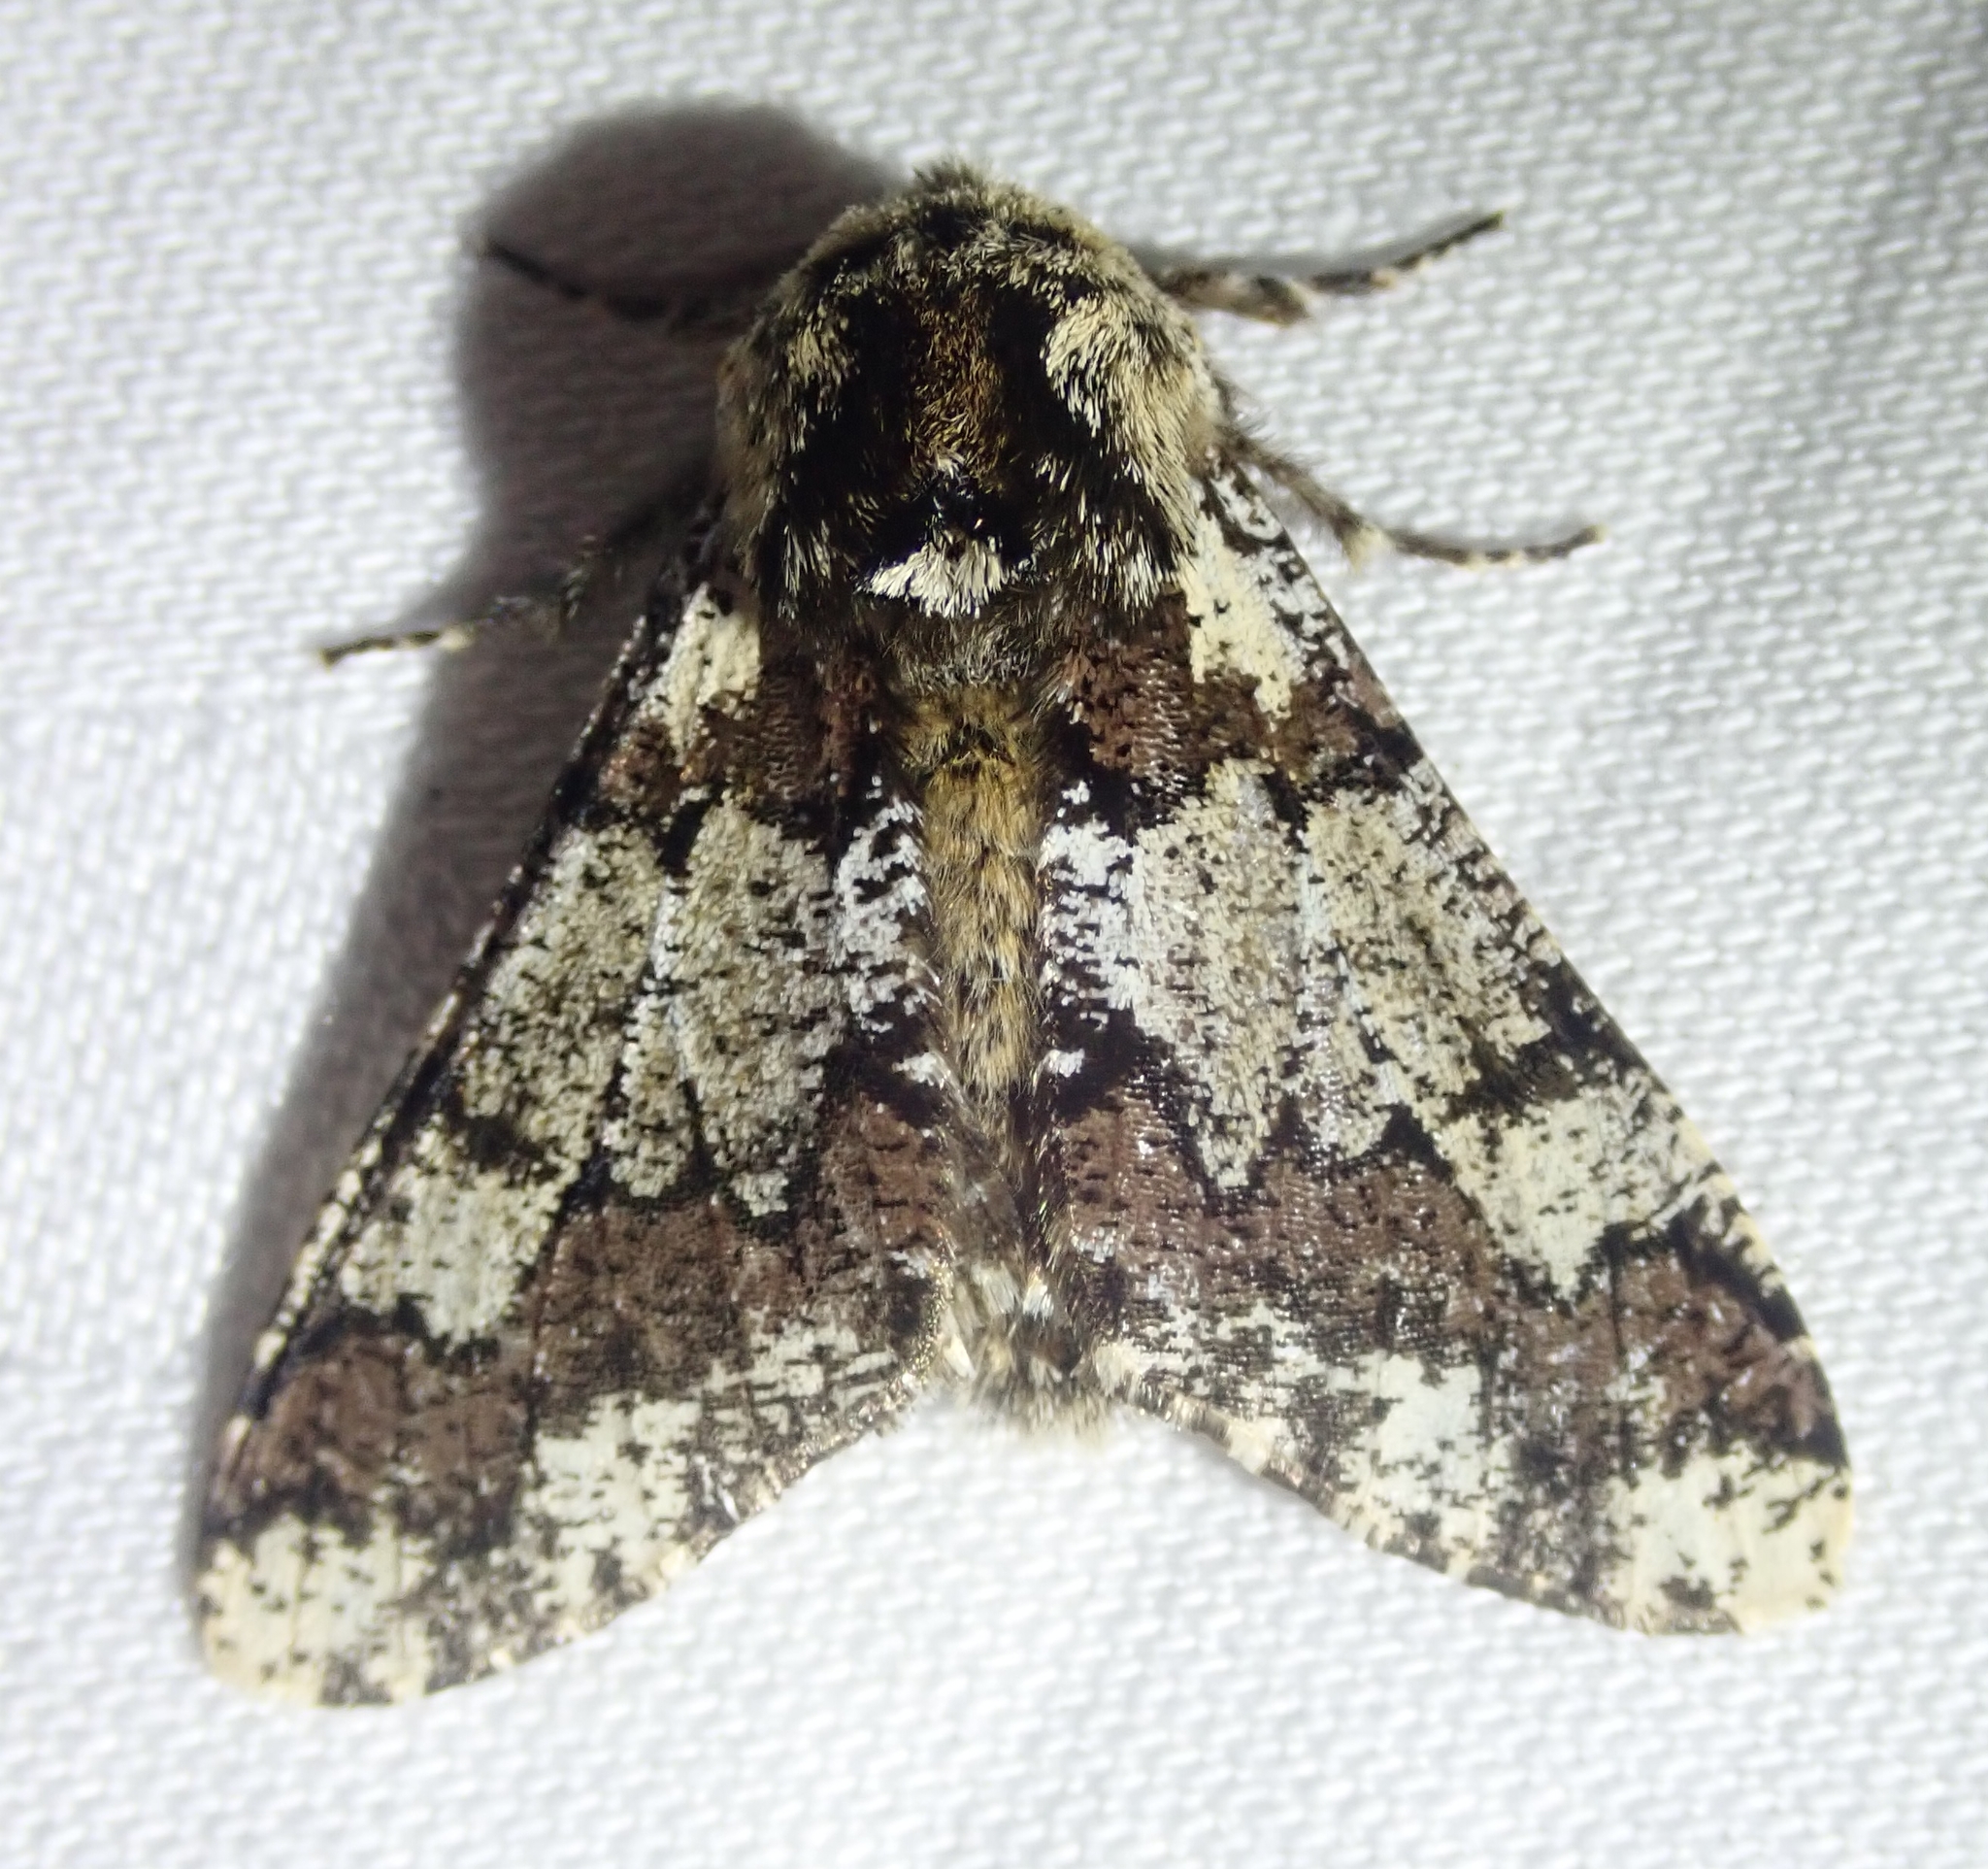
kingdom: Animalia
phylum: Arthropoda
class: Insecta
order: Lepidoptera
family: Geometridae
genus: Biston
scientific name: Biston strataria
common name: Oak beauty
